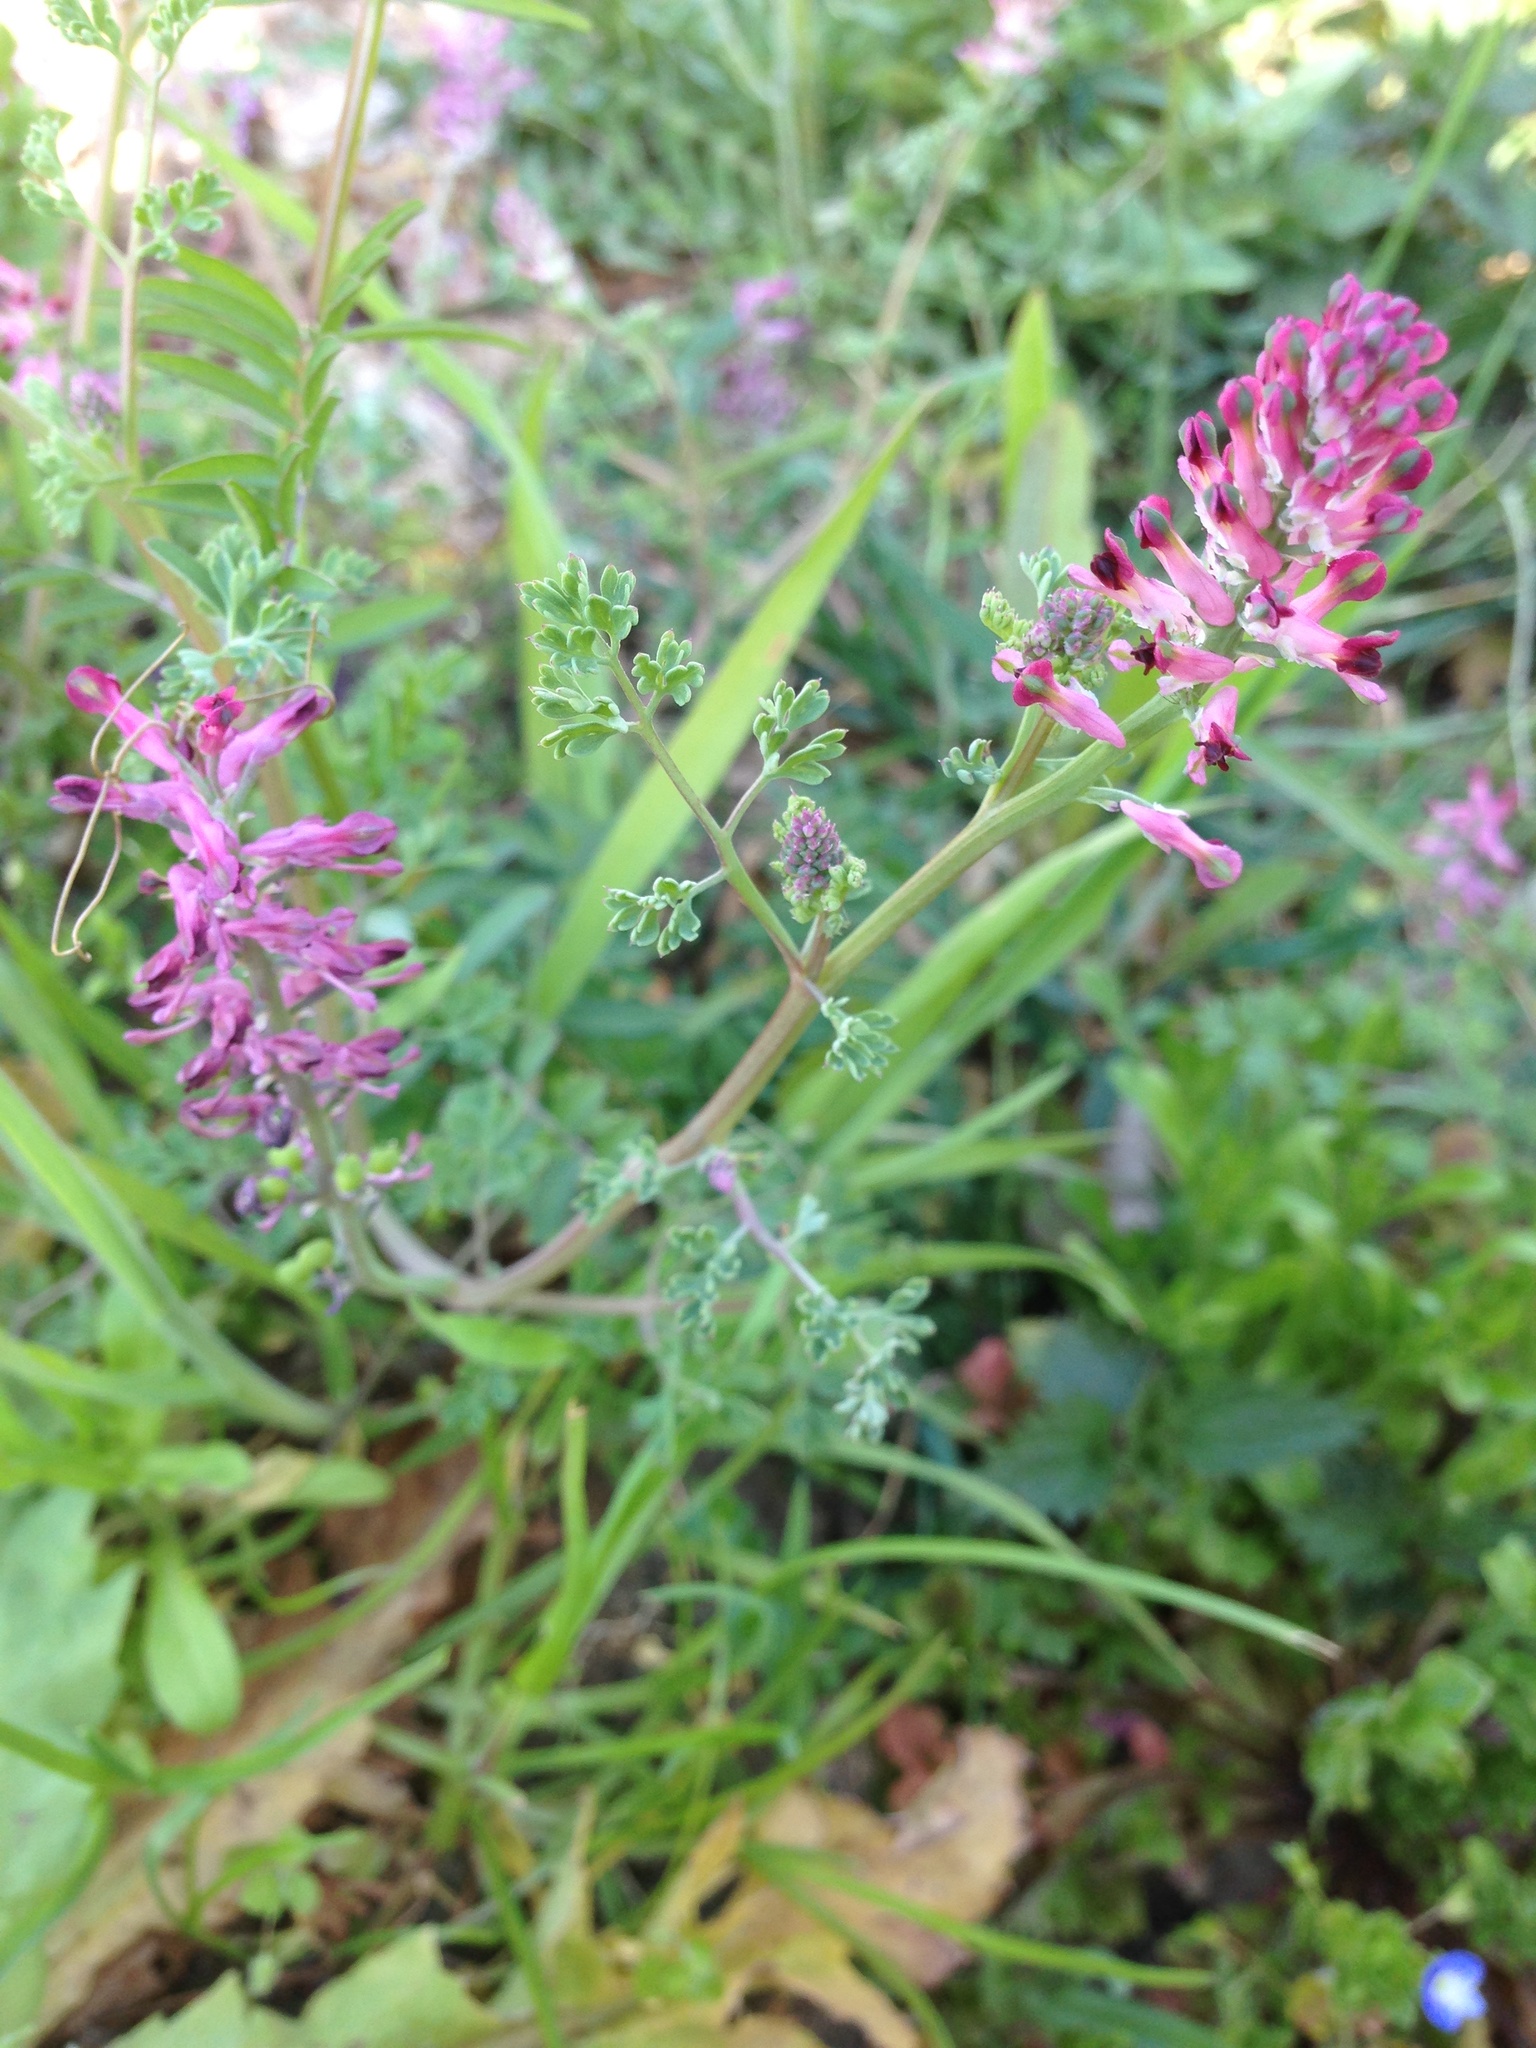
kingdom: Plantae
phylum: Tracheophyta
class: Magnoliopsida
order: Ranunculales
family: Papaveraceae
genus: Fumaria
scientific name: Fumaria officinalis
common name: Common fumitory
